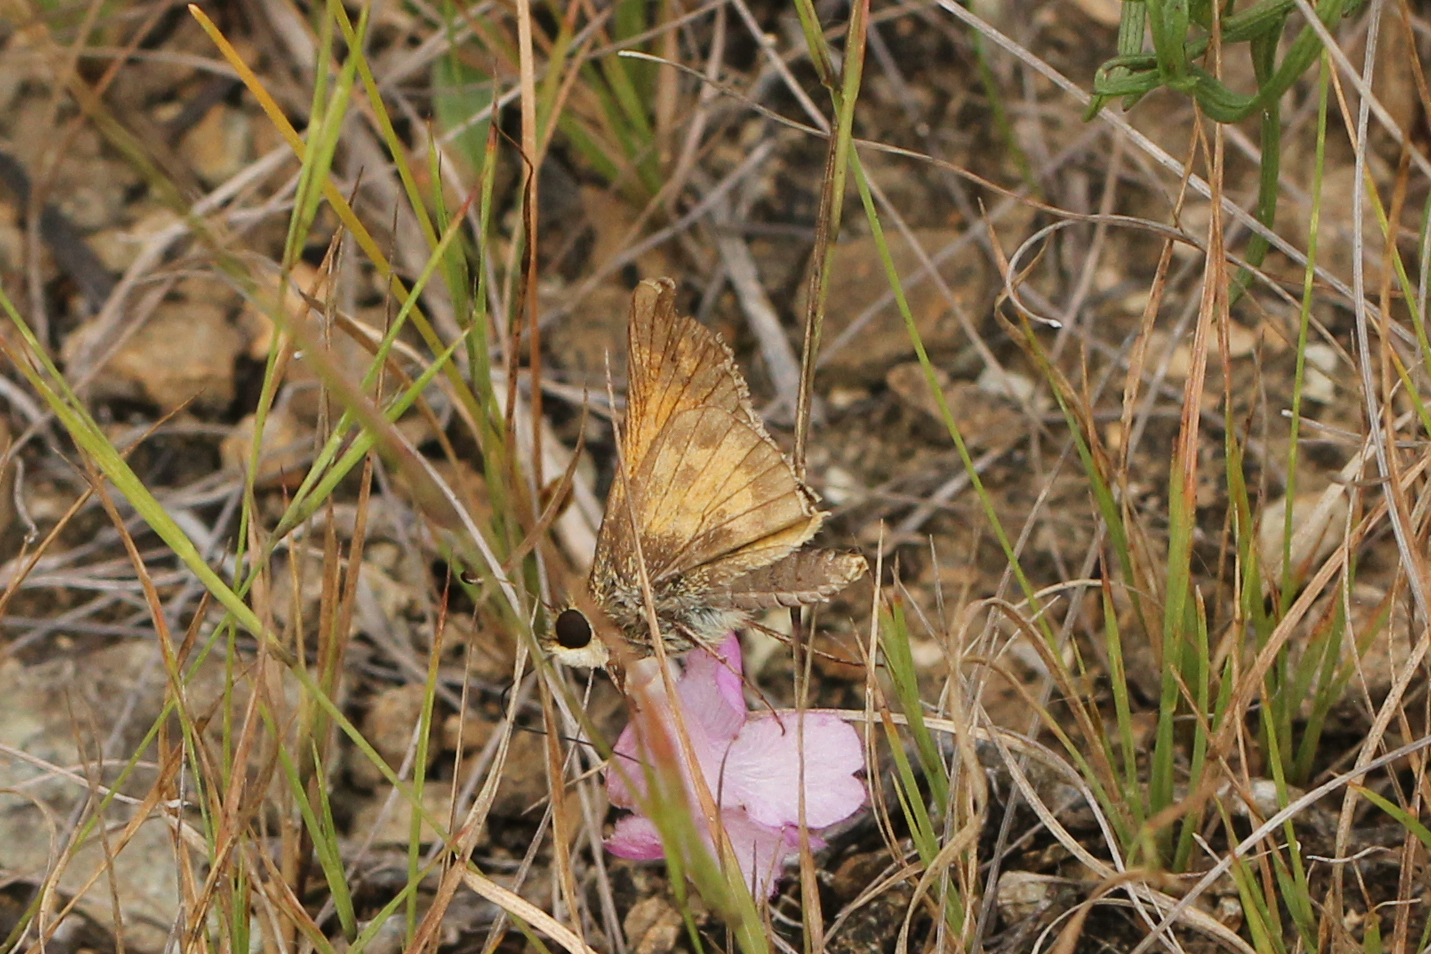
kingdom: Animalia
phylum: Arthropoda
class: Insecta
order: Lepidoptera
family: Hesperiidae
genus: Atalopedes
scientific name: Atalopedes
